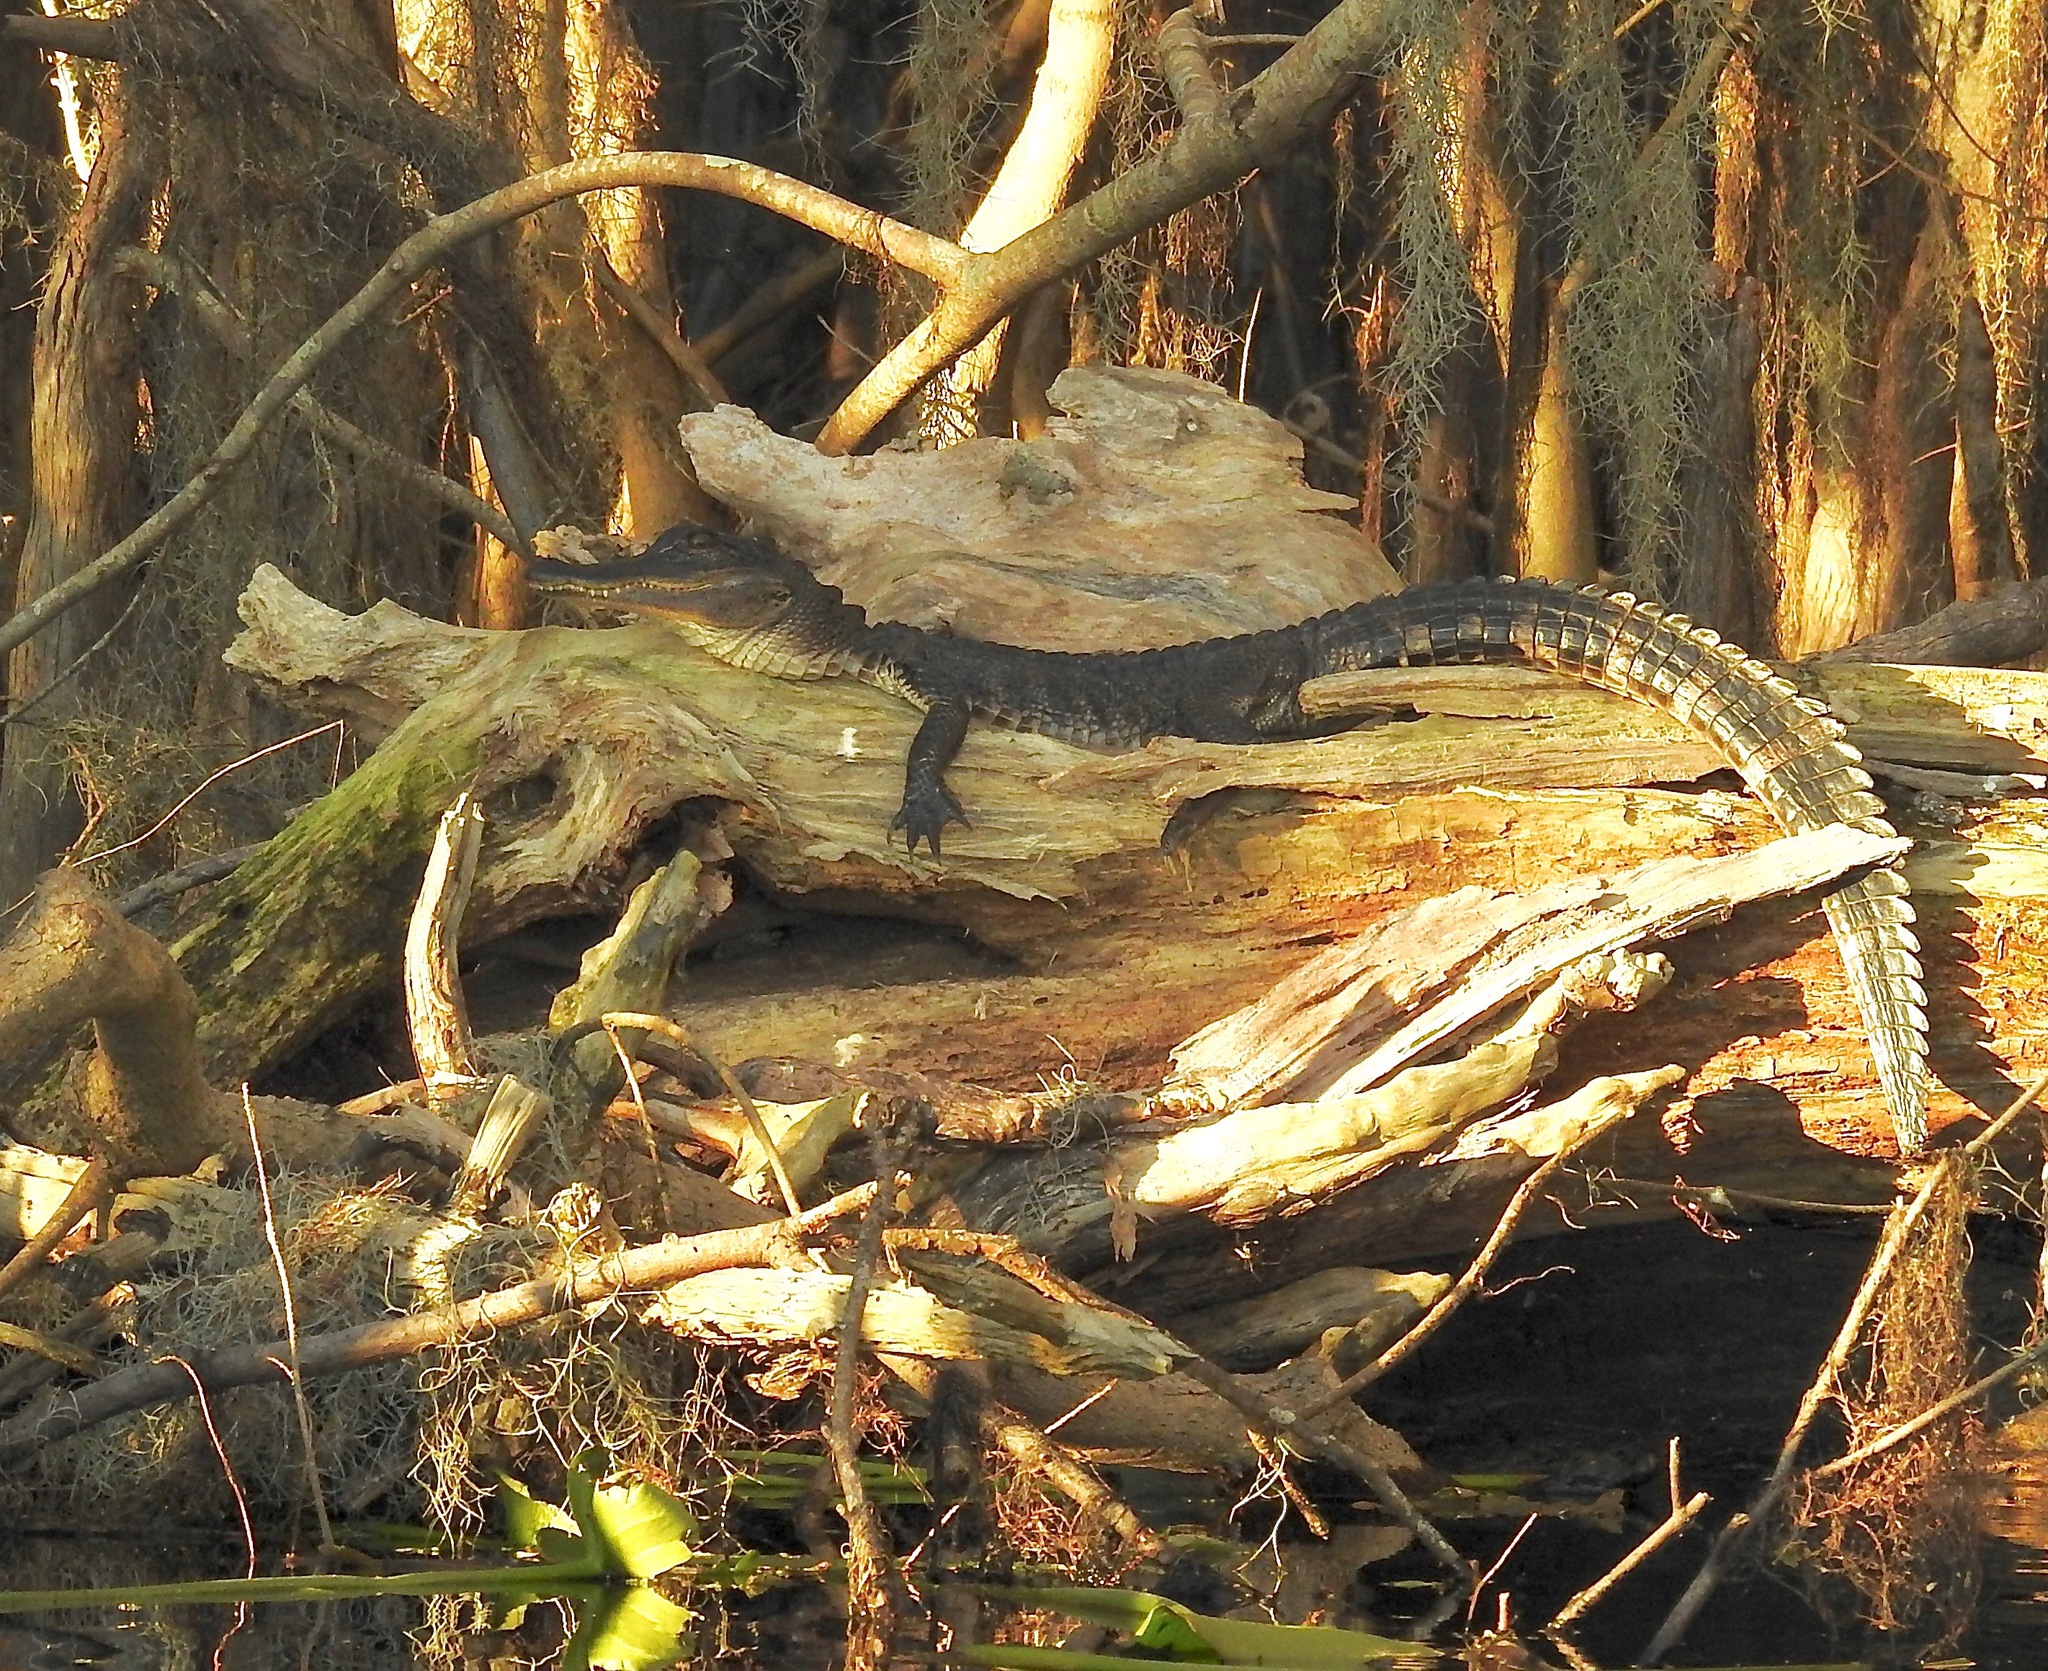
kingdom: Animalia
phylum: Chordata
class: Crocodylia
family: Alligatoridae
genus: Alligator
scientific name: Alligator mississippiensis
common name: American alligator
